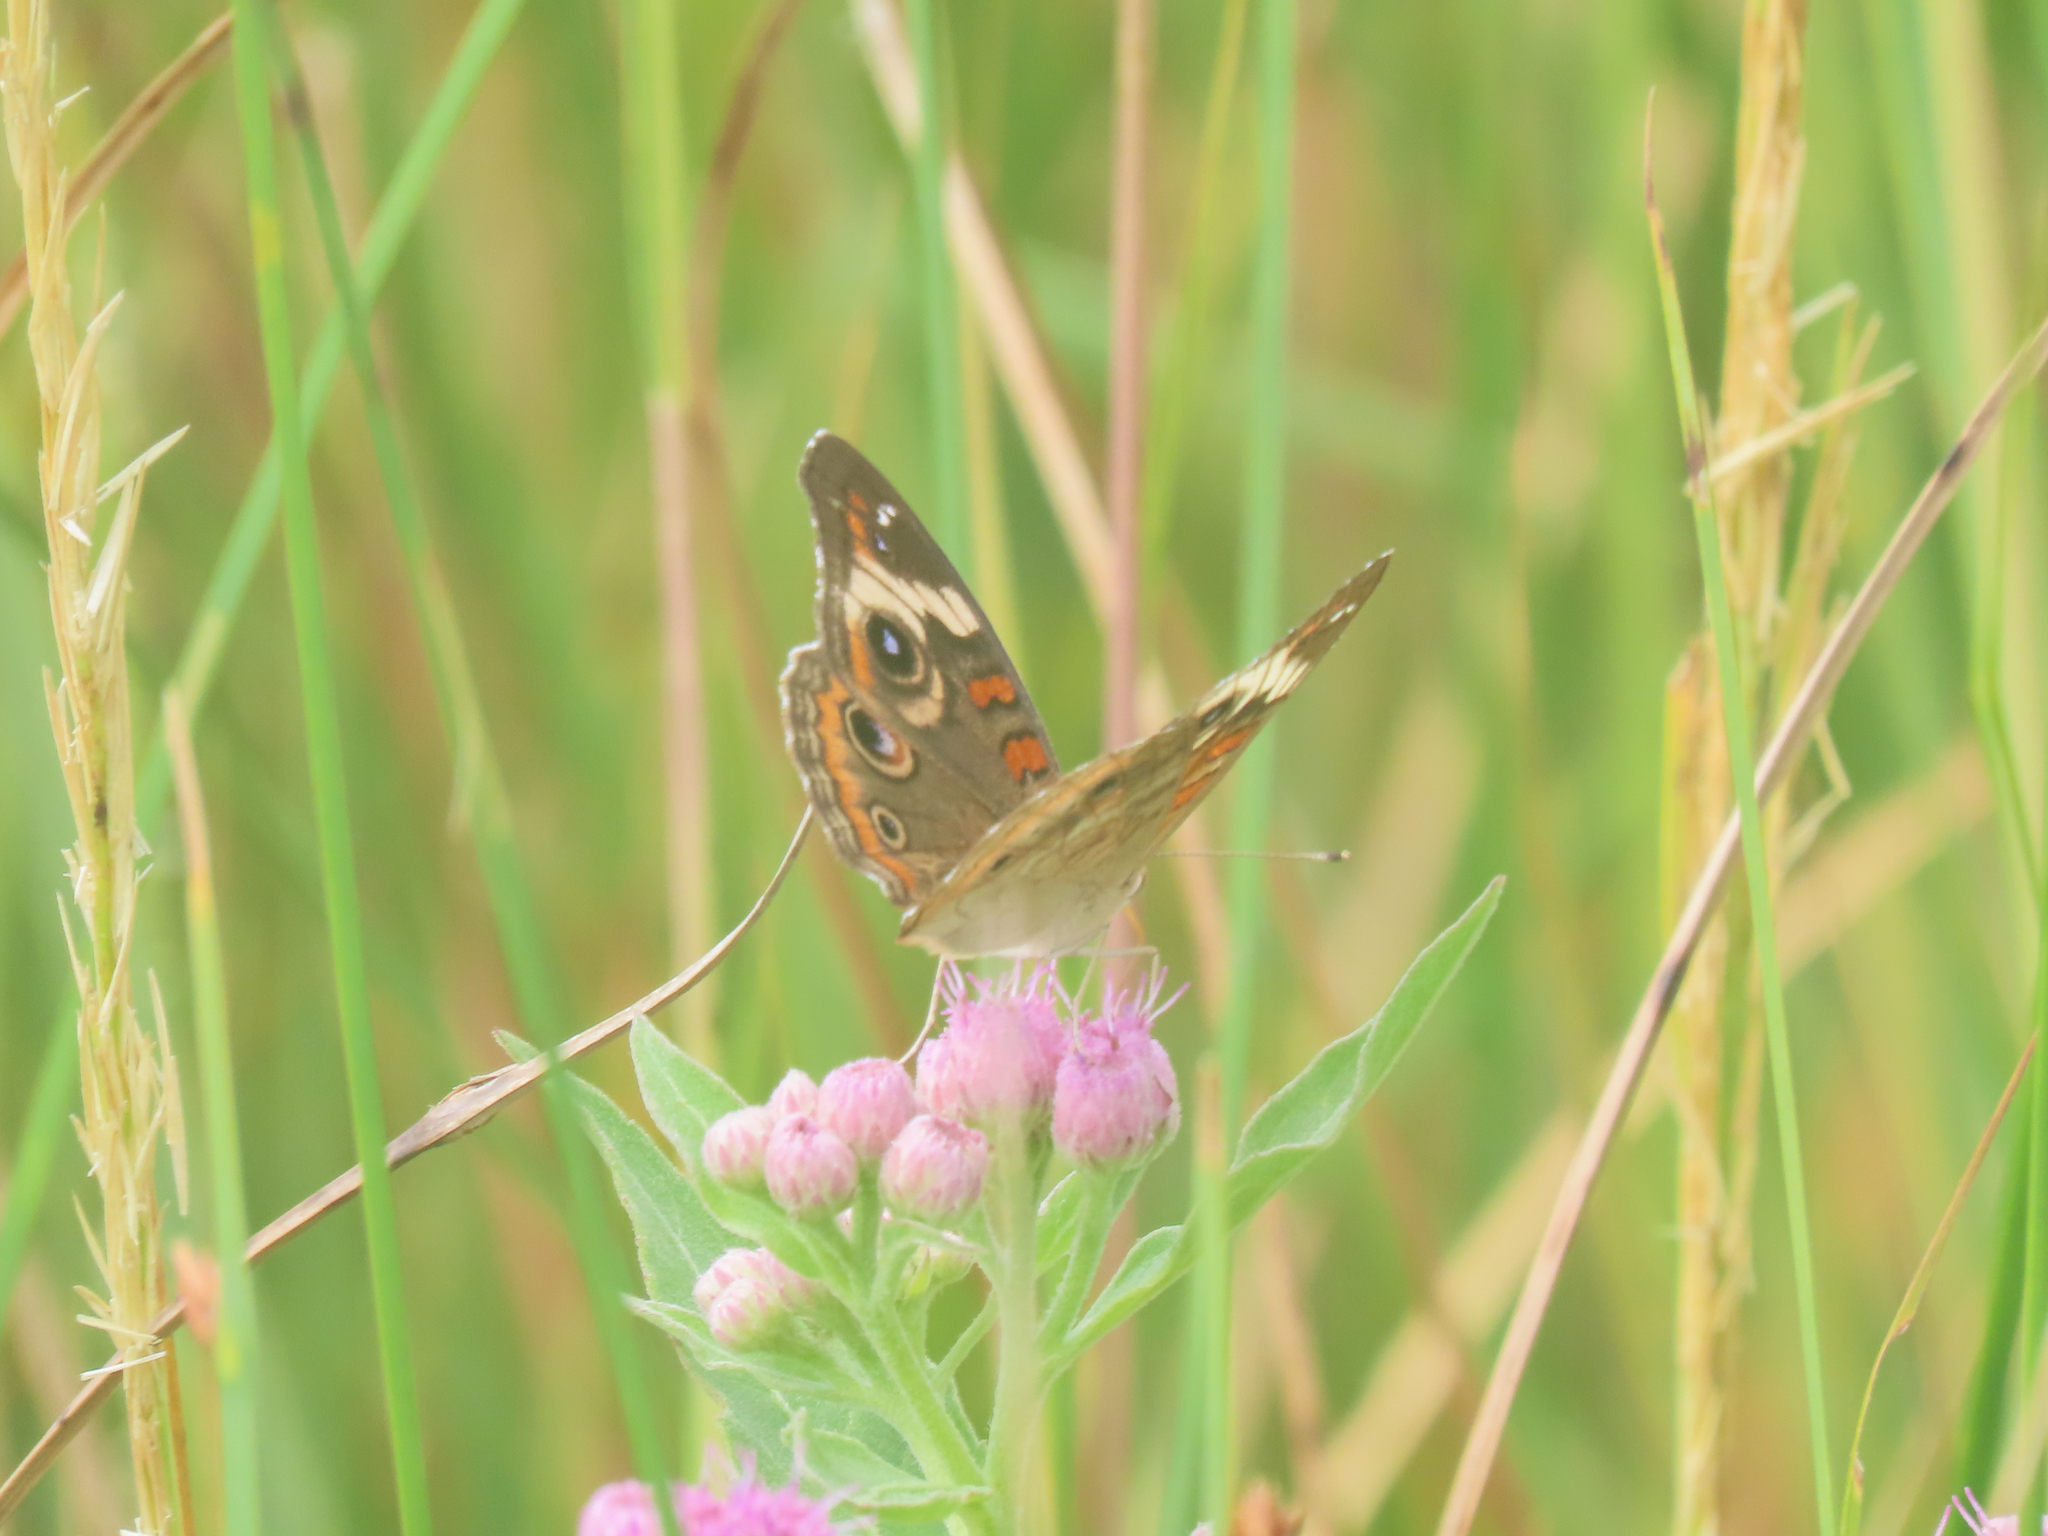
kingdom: Animalia
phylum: Arthropoda
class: Insecta
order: Lepidoptera
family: Nymphalidae
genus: Junonia
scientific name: Junonia coenia
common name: Common buckeye
